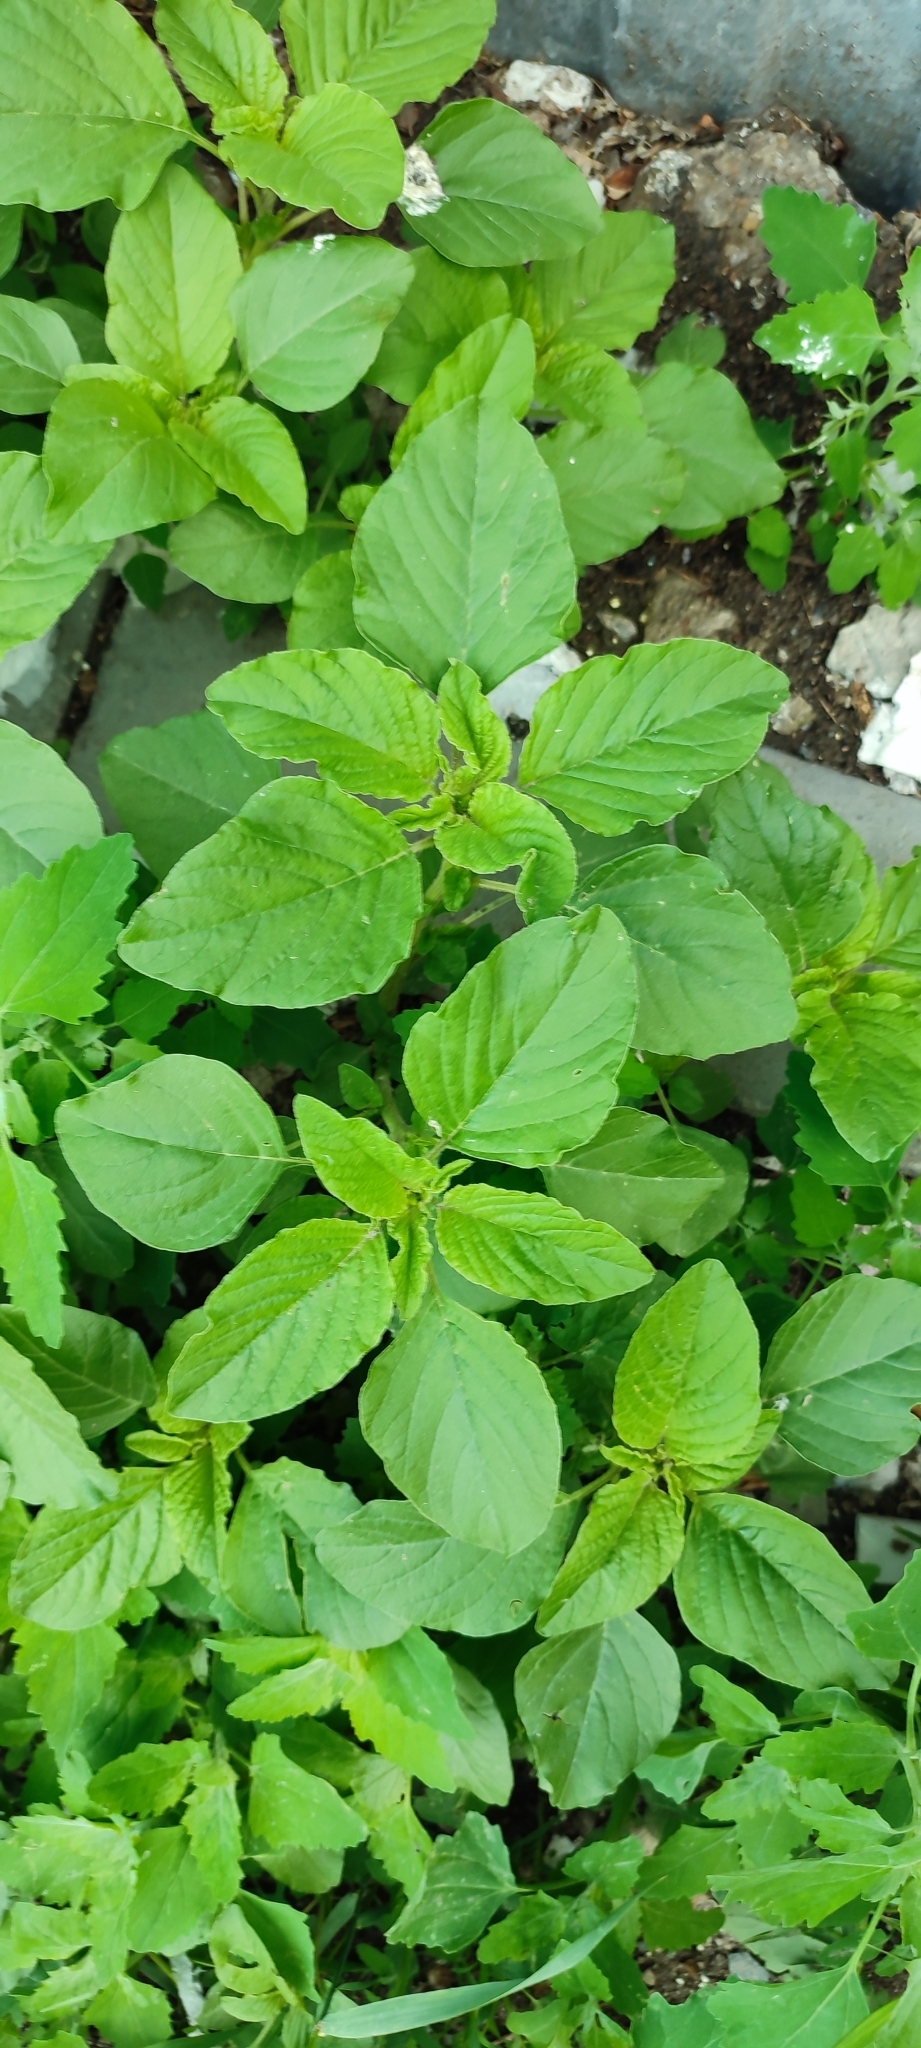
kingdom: Plantae
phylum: Tracheophyta
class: Magnoliopsida
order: Caryophyllales
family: Amaranthaceae
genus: Amaranthus
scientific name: Amaranthus retroflexus
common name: Redroot amaranth
